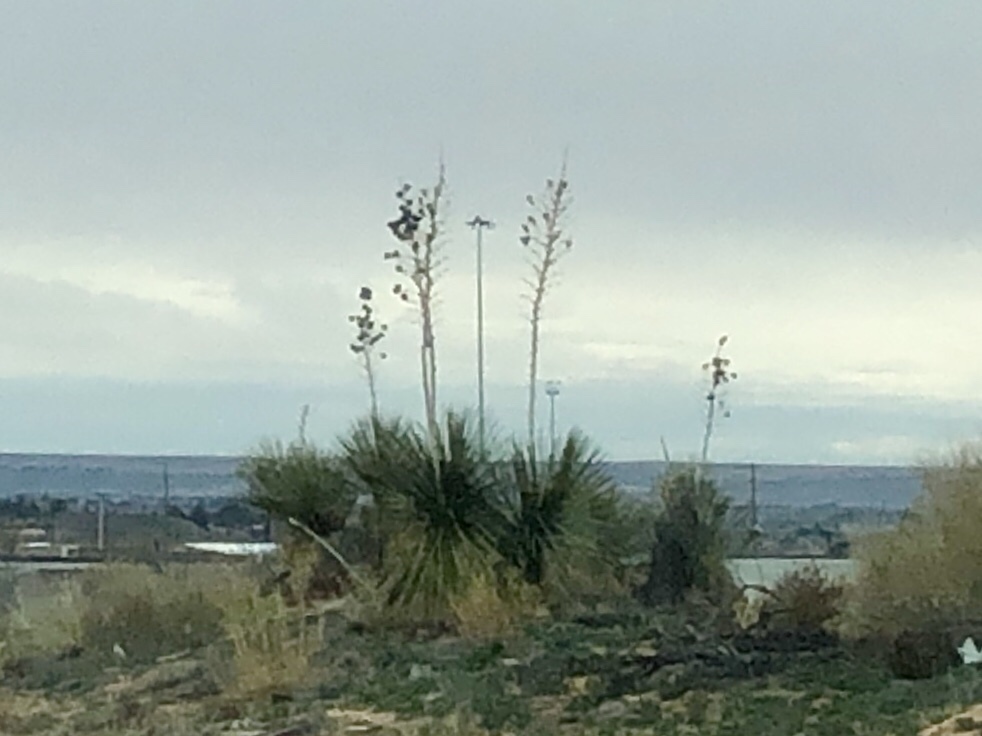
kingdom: Plantae
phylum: Tracheophyta
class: Liliopsida
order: Asparagales
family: Asparagaceae
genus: Yucca
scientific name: Yucca elata
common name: Palmella
